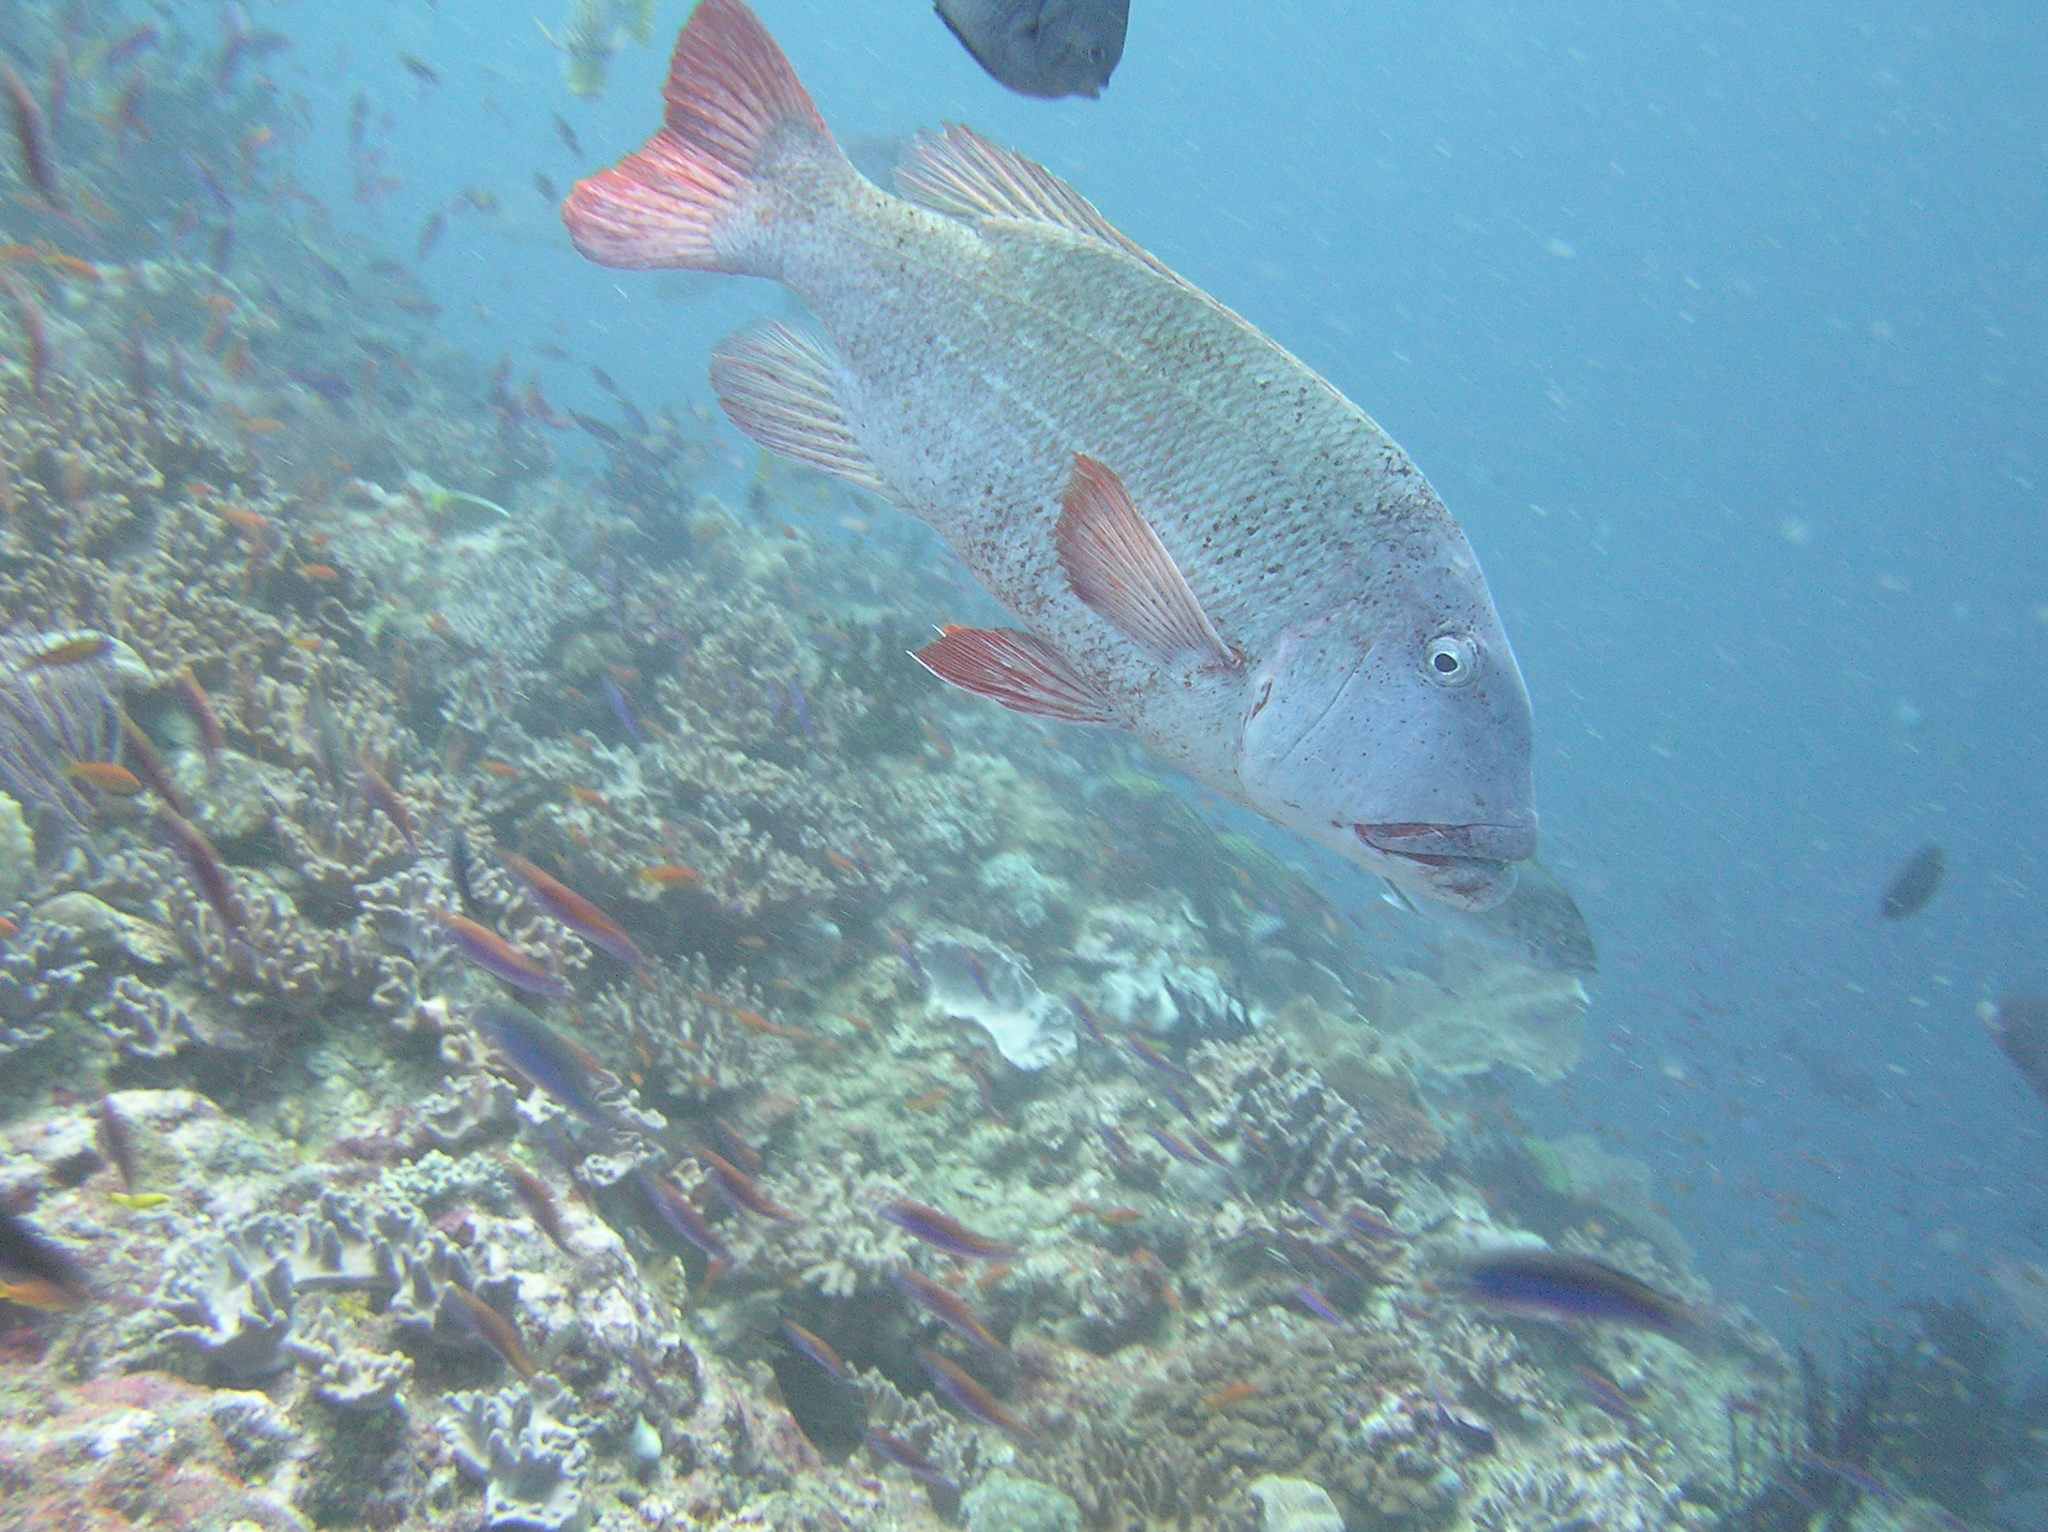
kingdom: Animalia
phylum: Chordata
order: Perciformes
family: Lethrinidae
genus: Lethrinus
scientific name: Lethrinus erythracanthus
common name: Orange-spotted emperor
